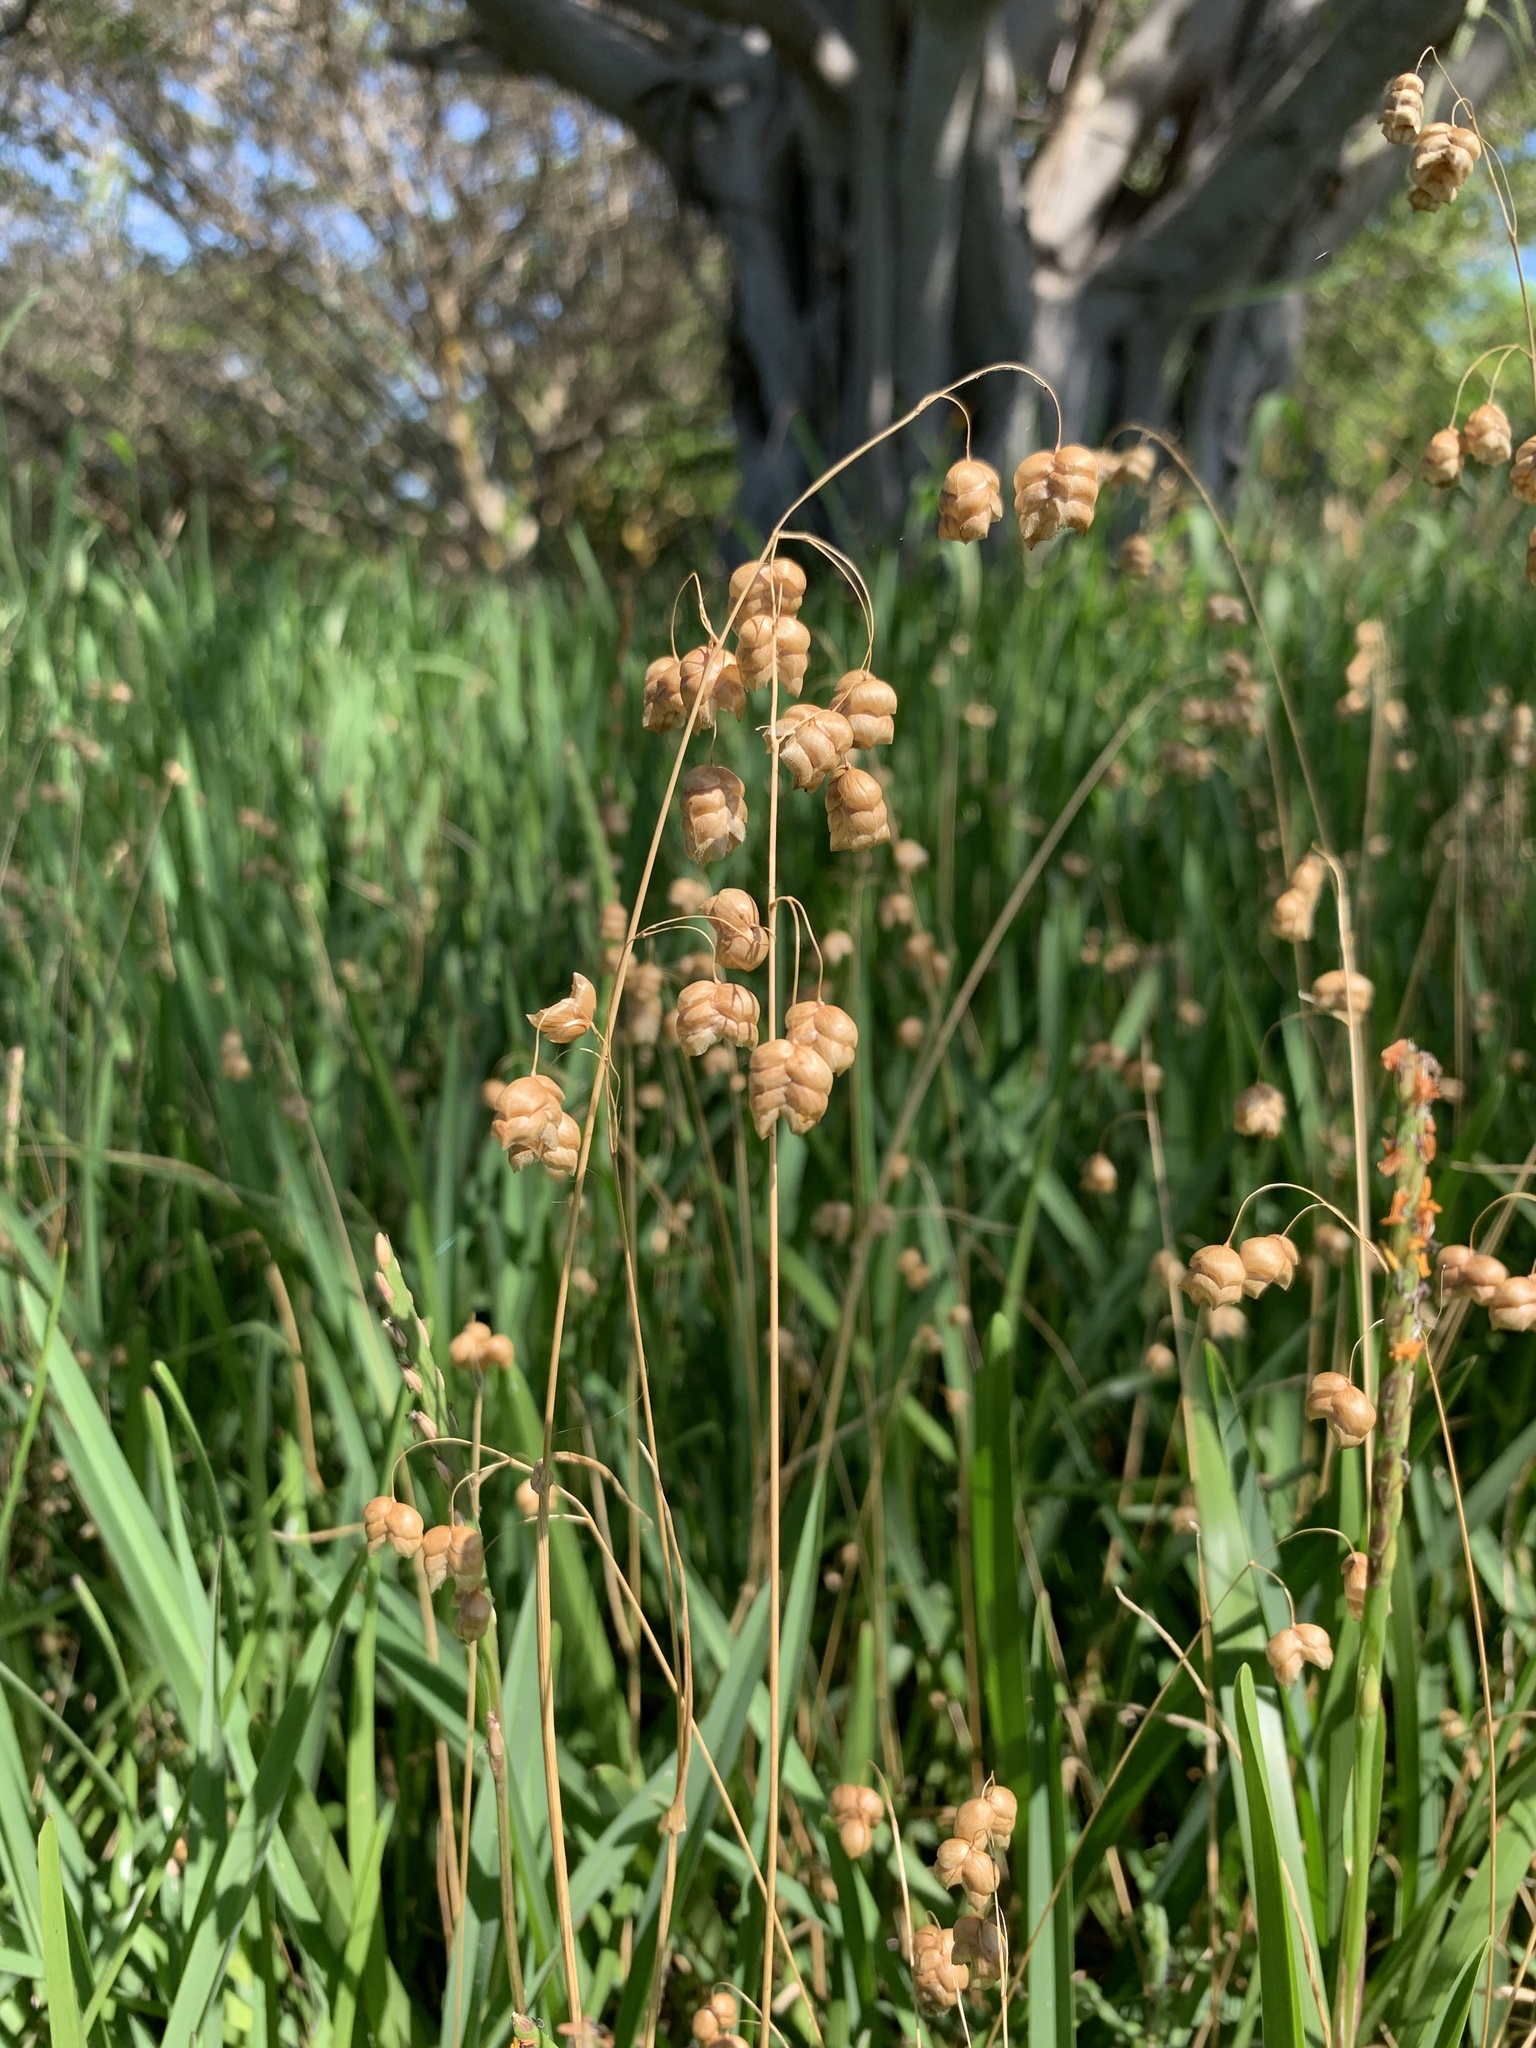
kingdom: Plantae
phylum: Tracheophyta
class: Liliopsida
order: Poales
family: Poaceae
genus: Briza
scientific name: Briza maxima
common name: Big quakinggrass
